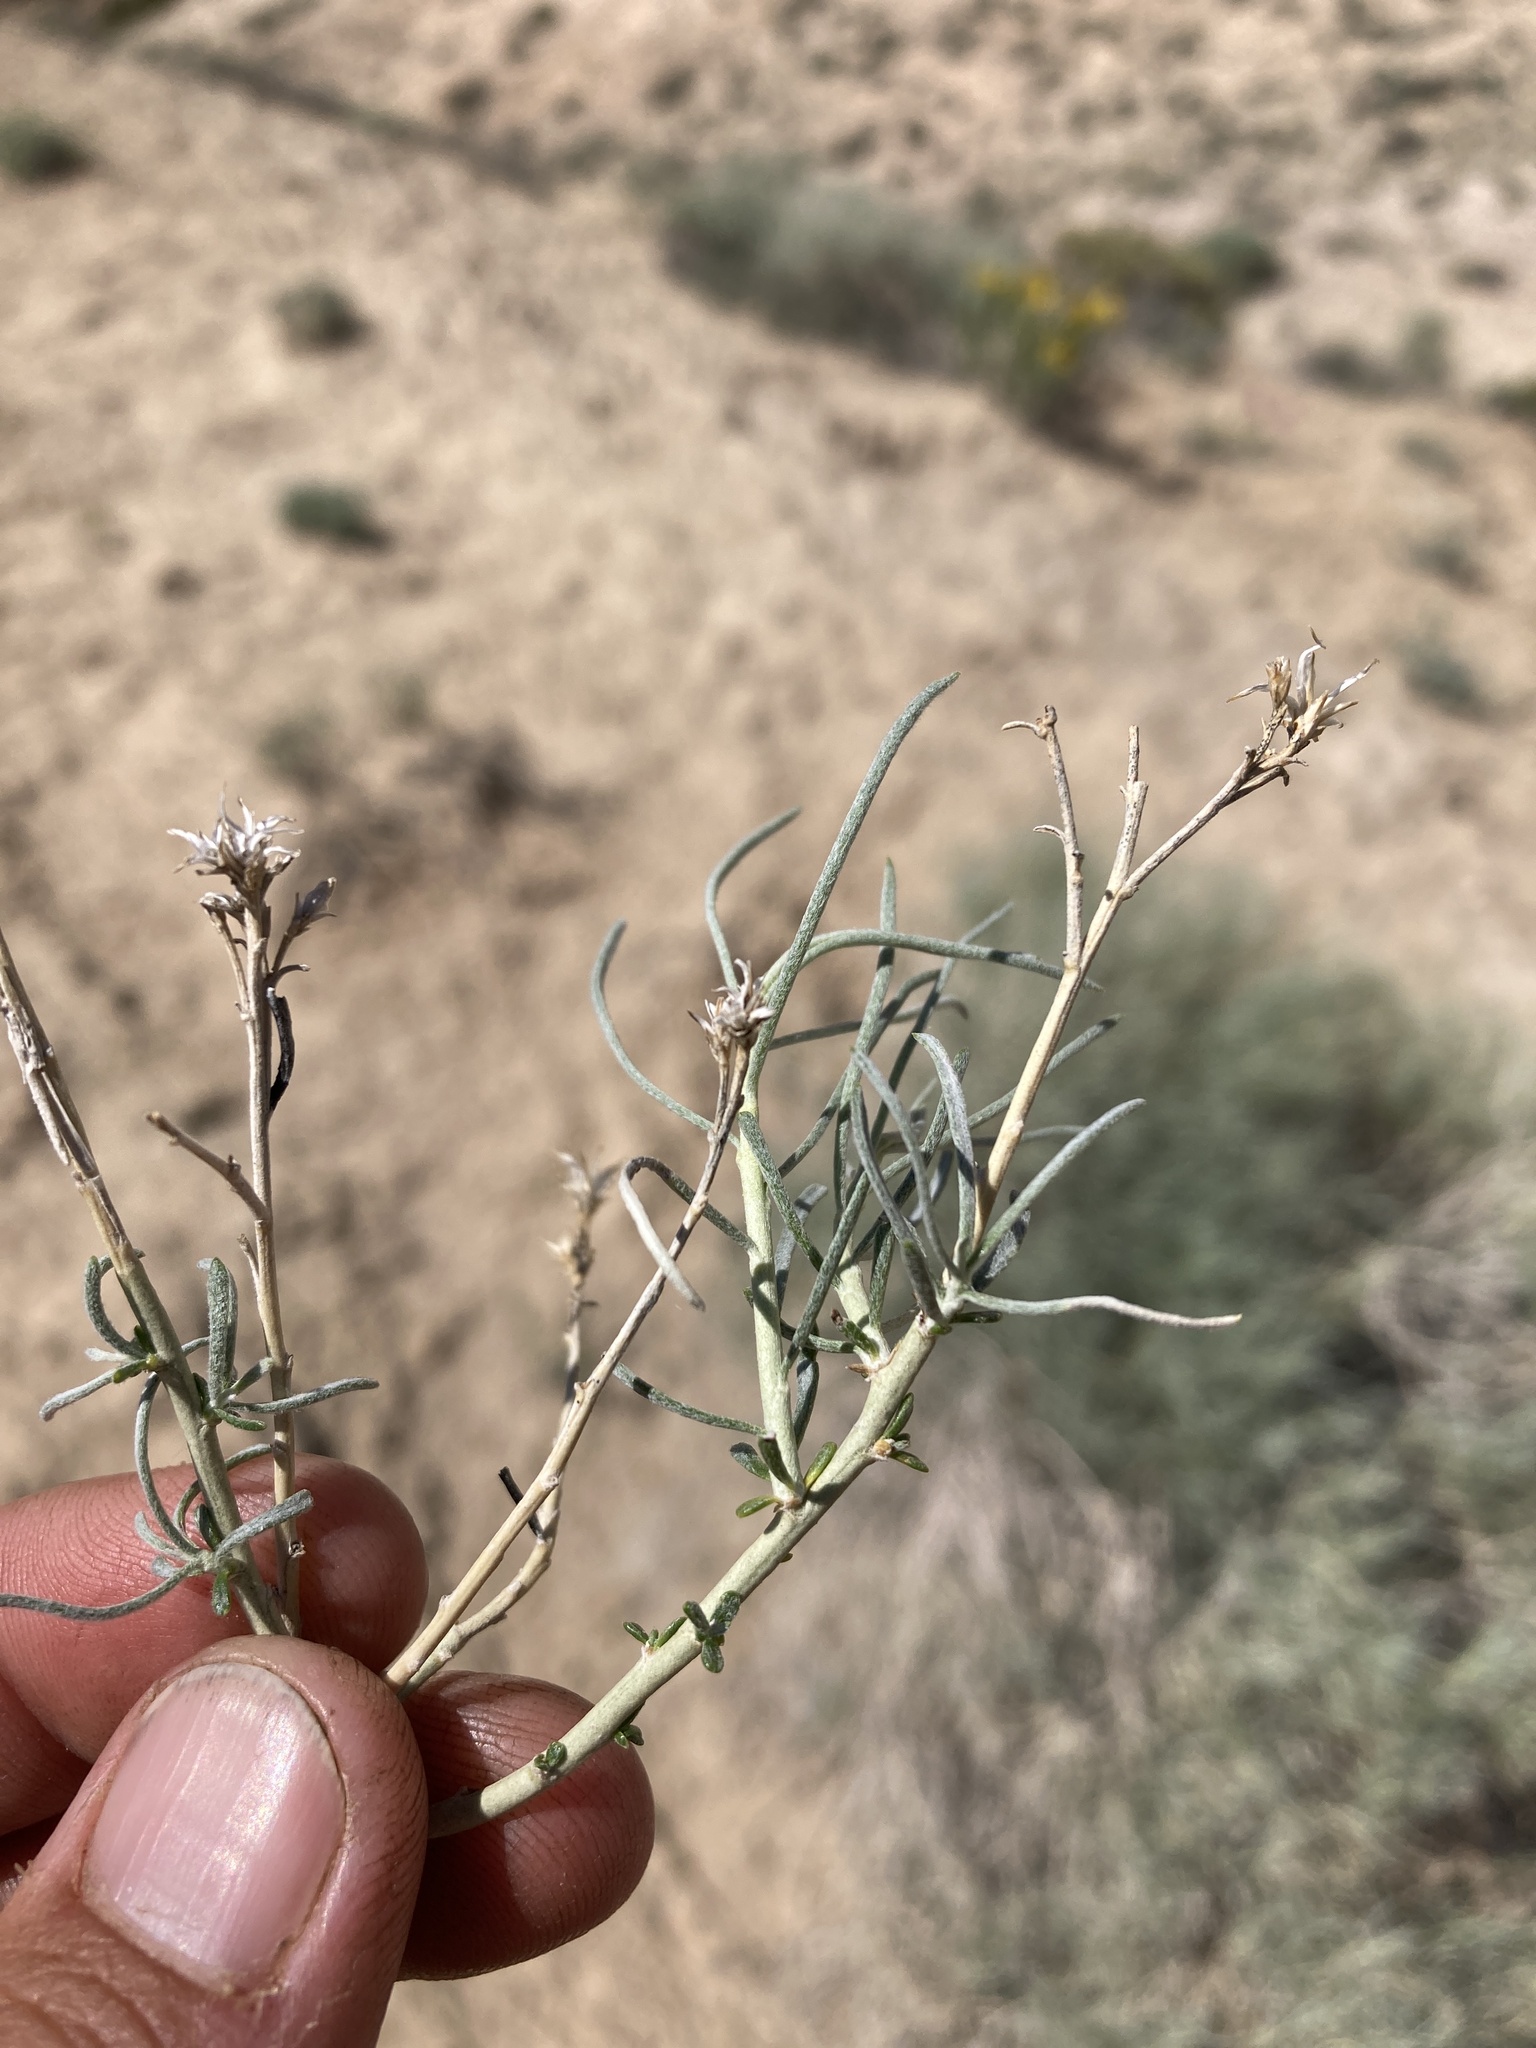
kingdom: Plantae
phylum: Tracheophyta
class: Magnoliopsida
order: Asterales
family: Asteraceae
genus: Ericameria
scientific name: Ericameria nauseosa
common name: Rubber rabbitbrush
